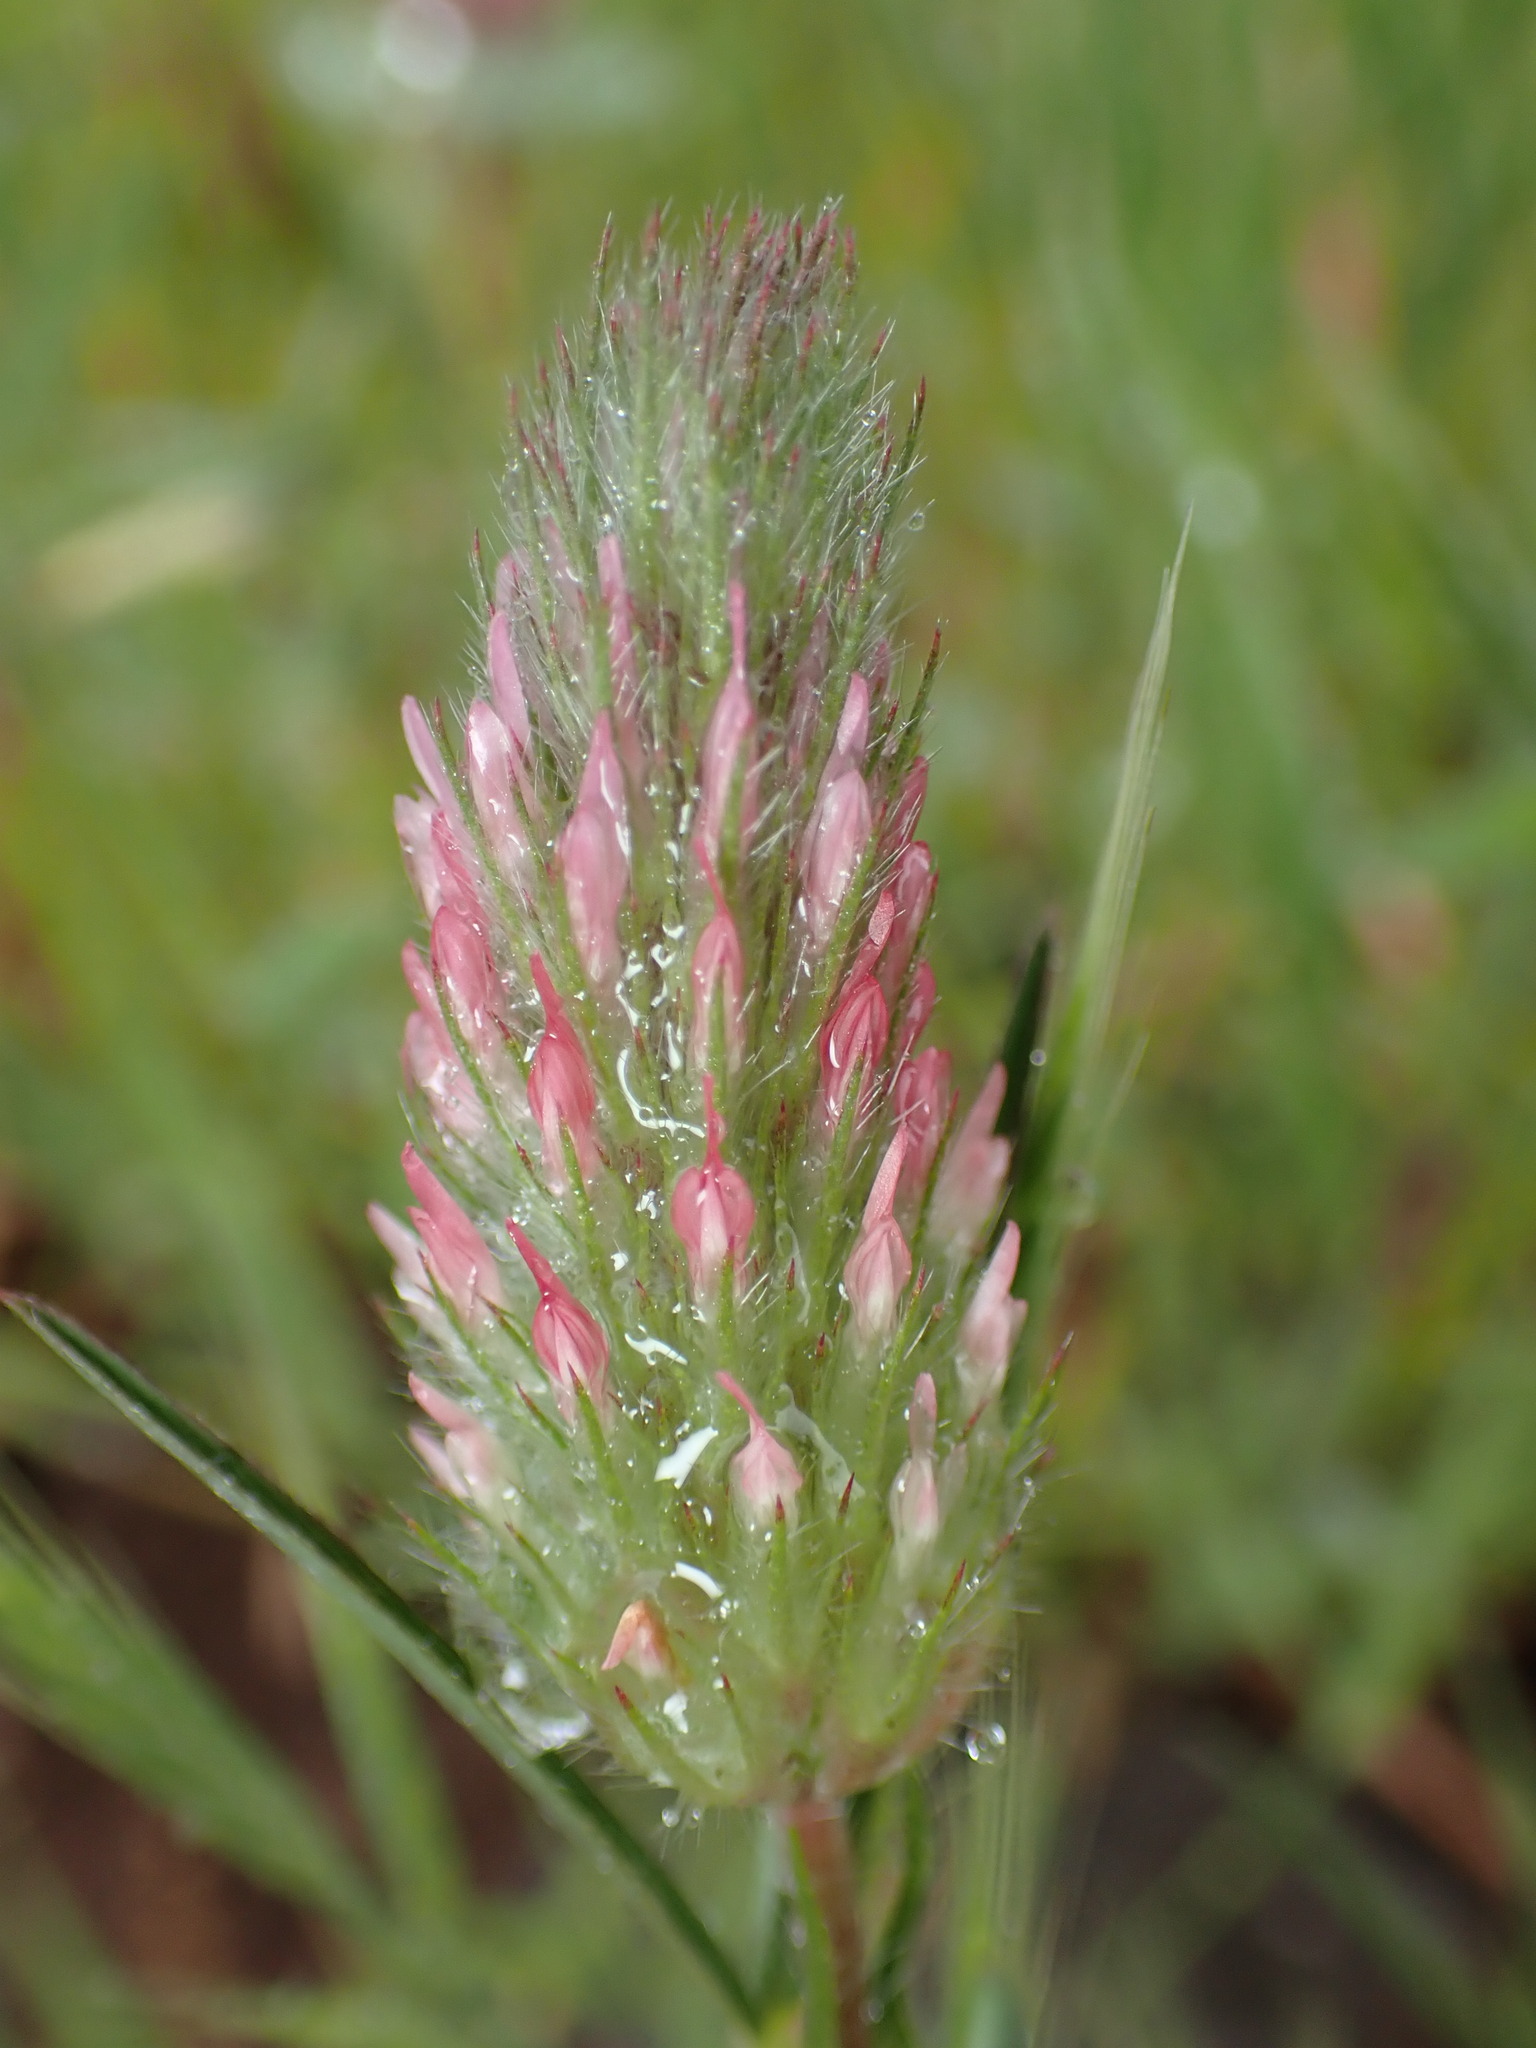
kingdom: Plantae
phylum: Tracheophyta
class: Magnoliopsida
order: Fabales
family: Fabaceae
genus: Trifolium
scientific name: Trifolium angustifolium
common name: Narrow clover
